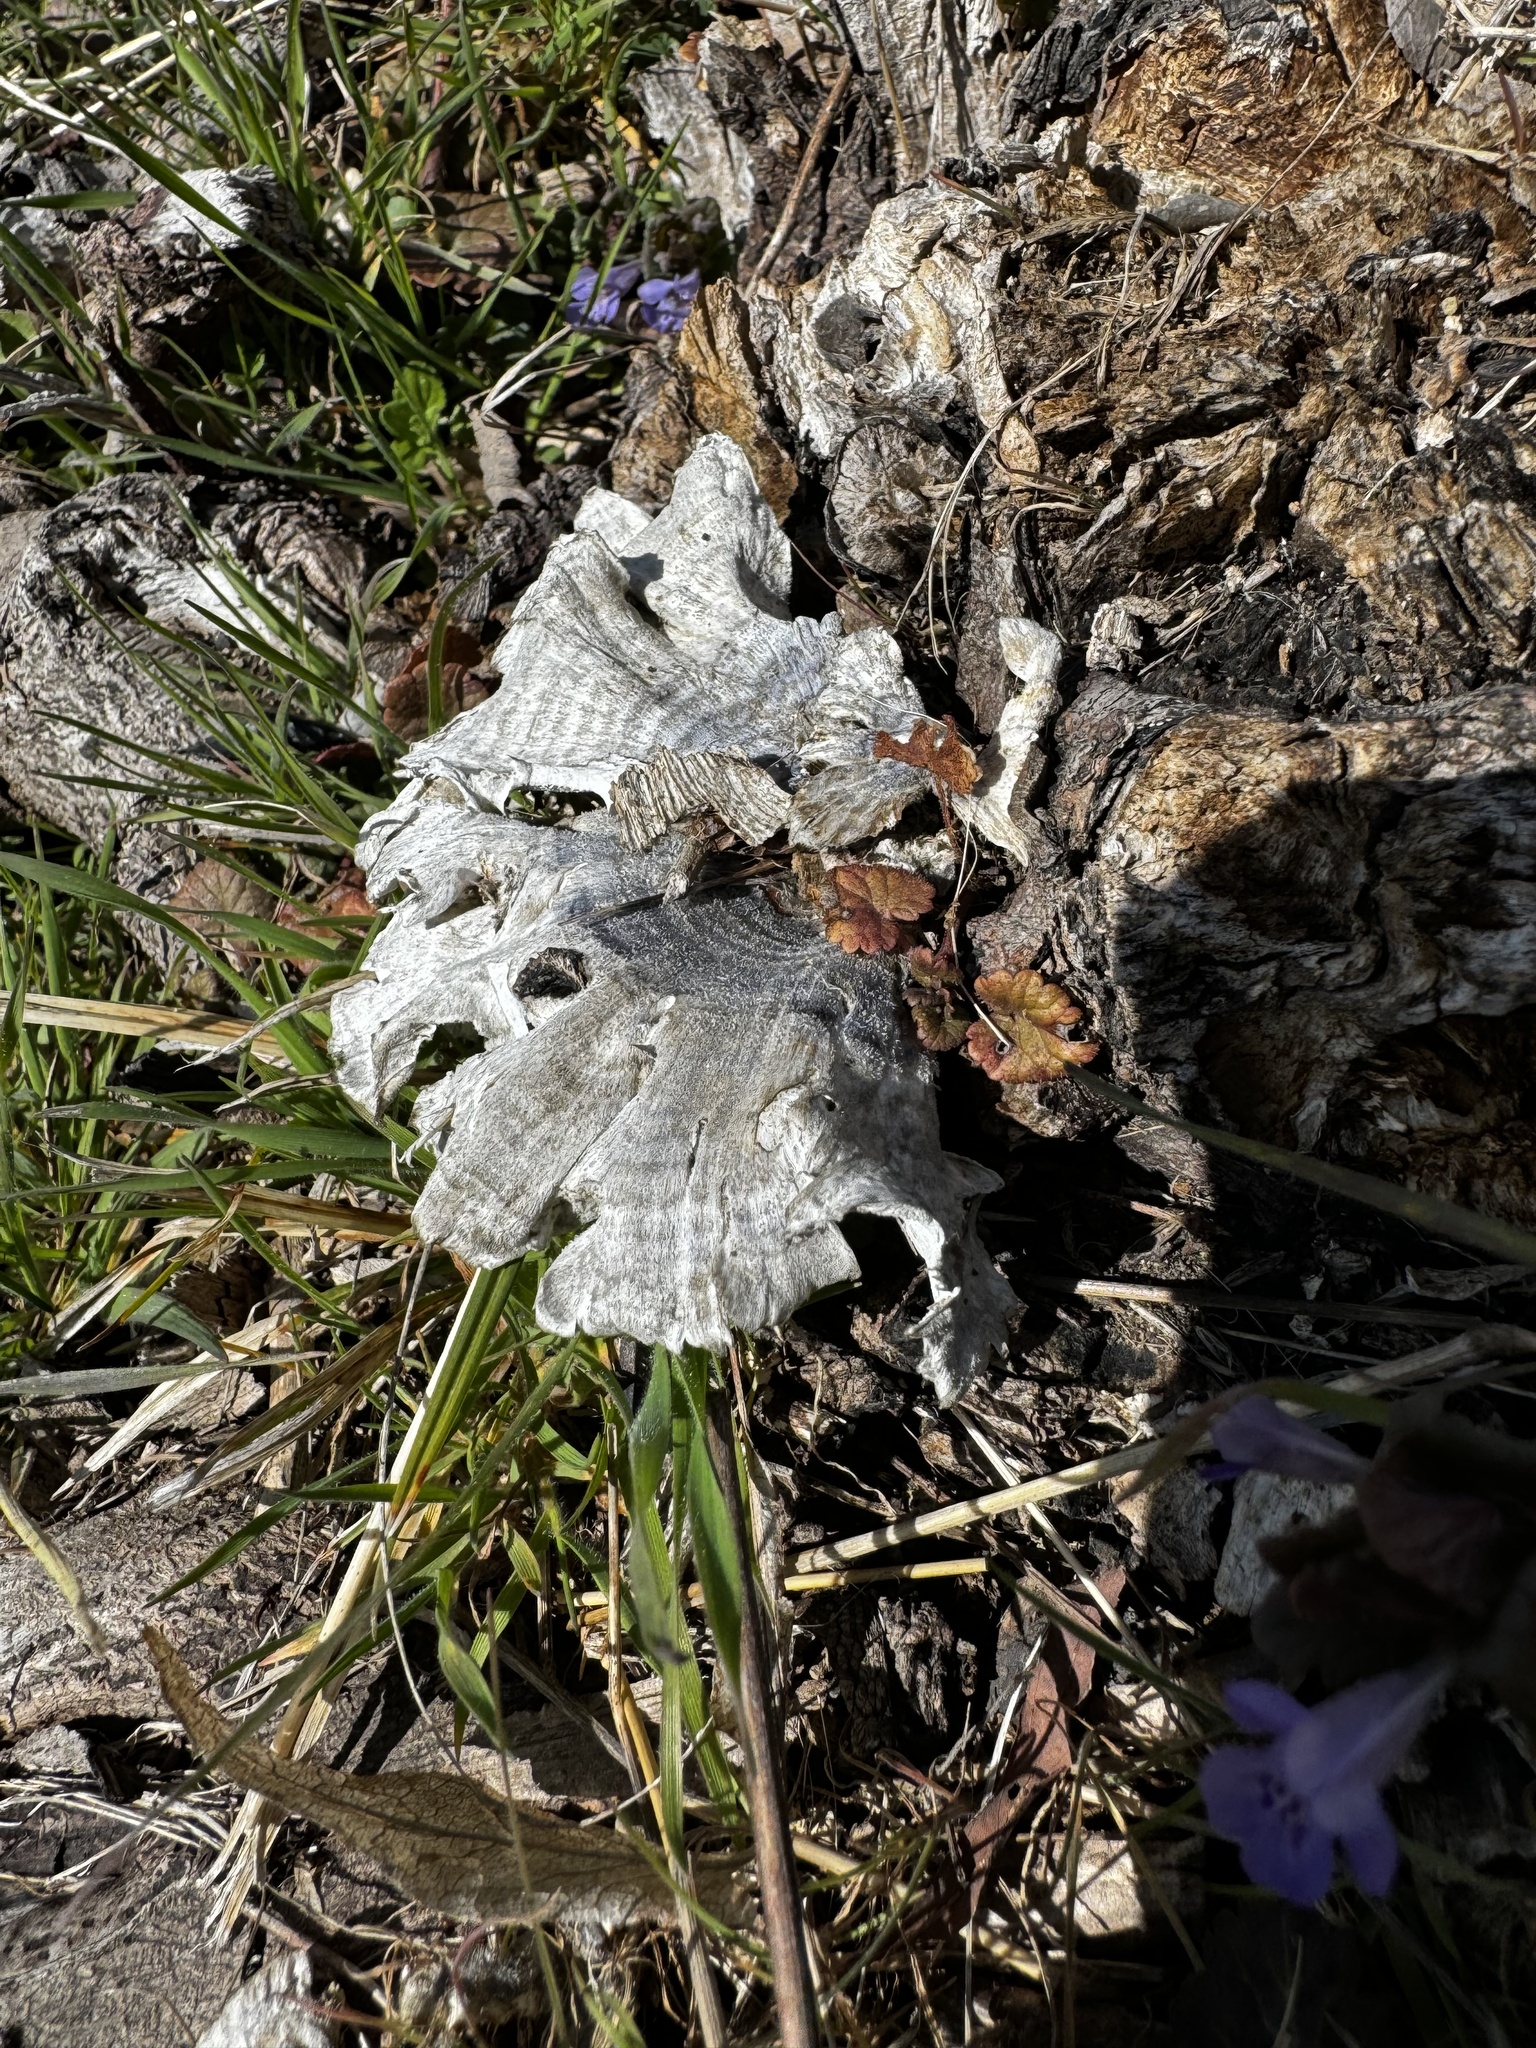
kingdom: Fungi
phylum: Basidiomycota
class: Agaricomycetes
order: Polyporales
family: Polyporaceae
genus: Trametes
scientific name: Trametes versicolor
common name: Turkeytail
